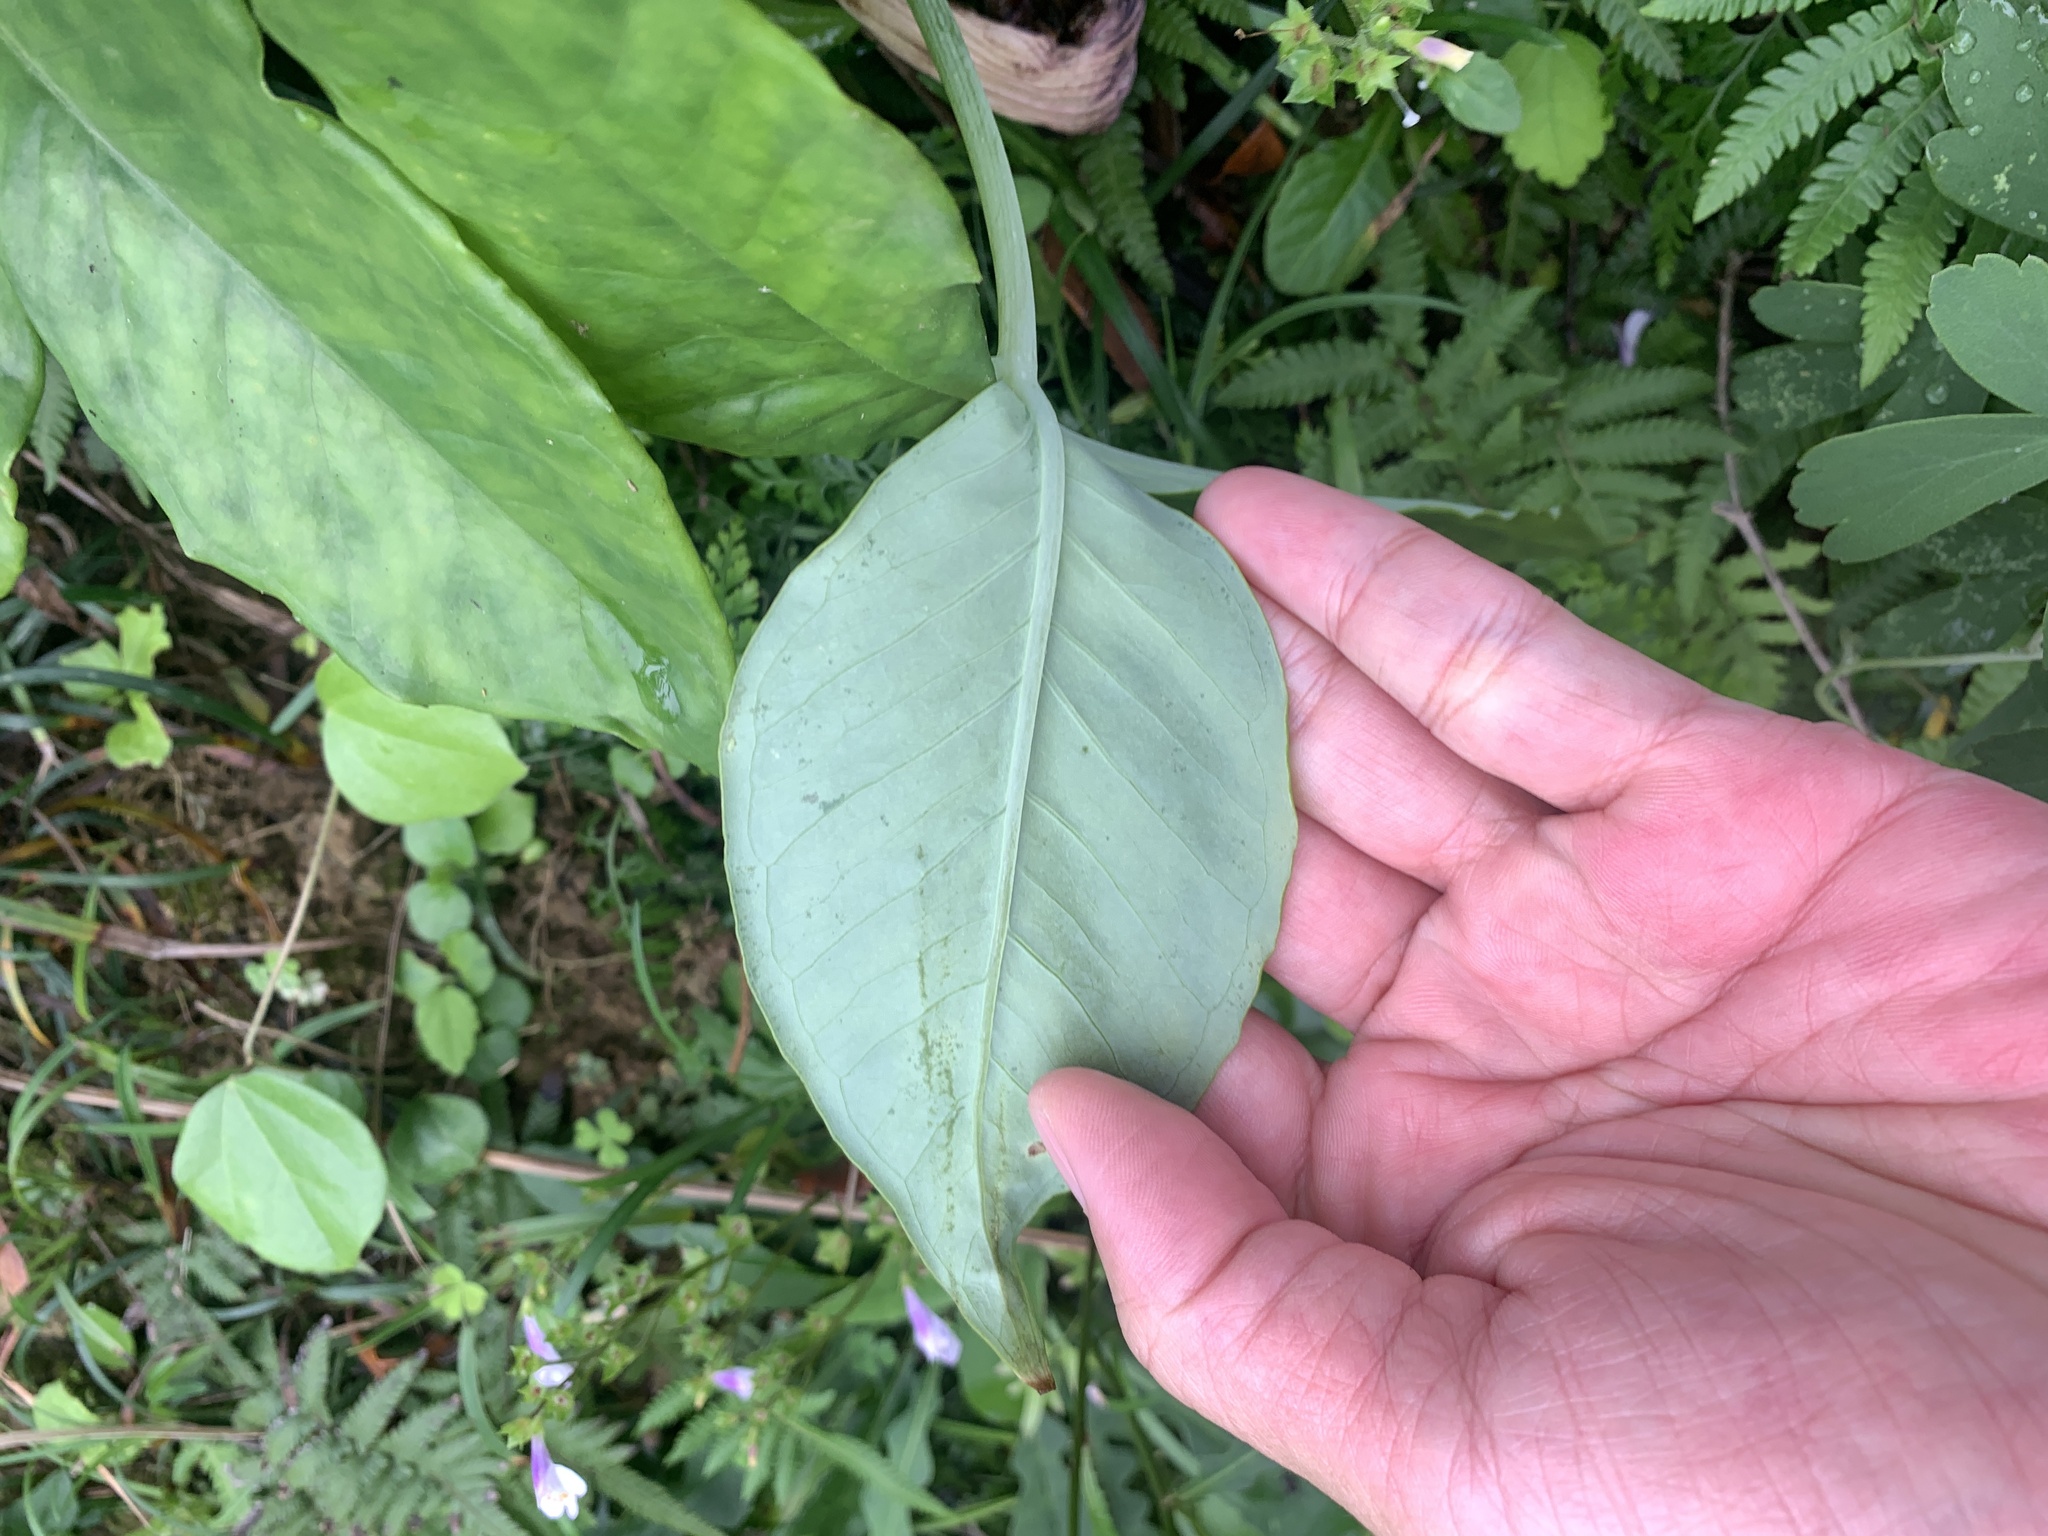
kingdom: Plantae
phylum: Tracheophyta
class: Liliopsida
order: Alismatales
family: Araceae
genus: Arisaema
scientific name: Arisaema ringens
